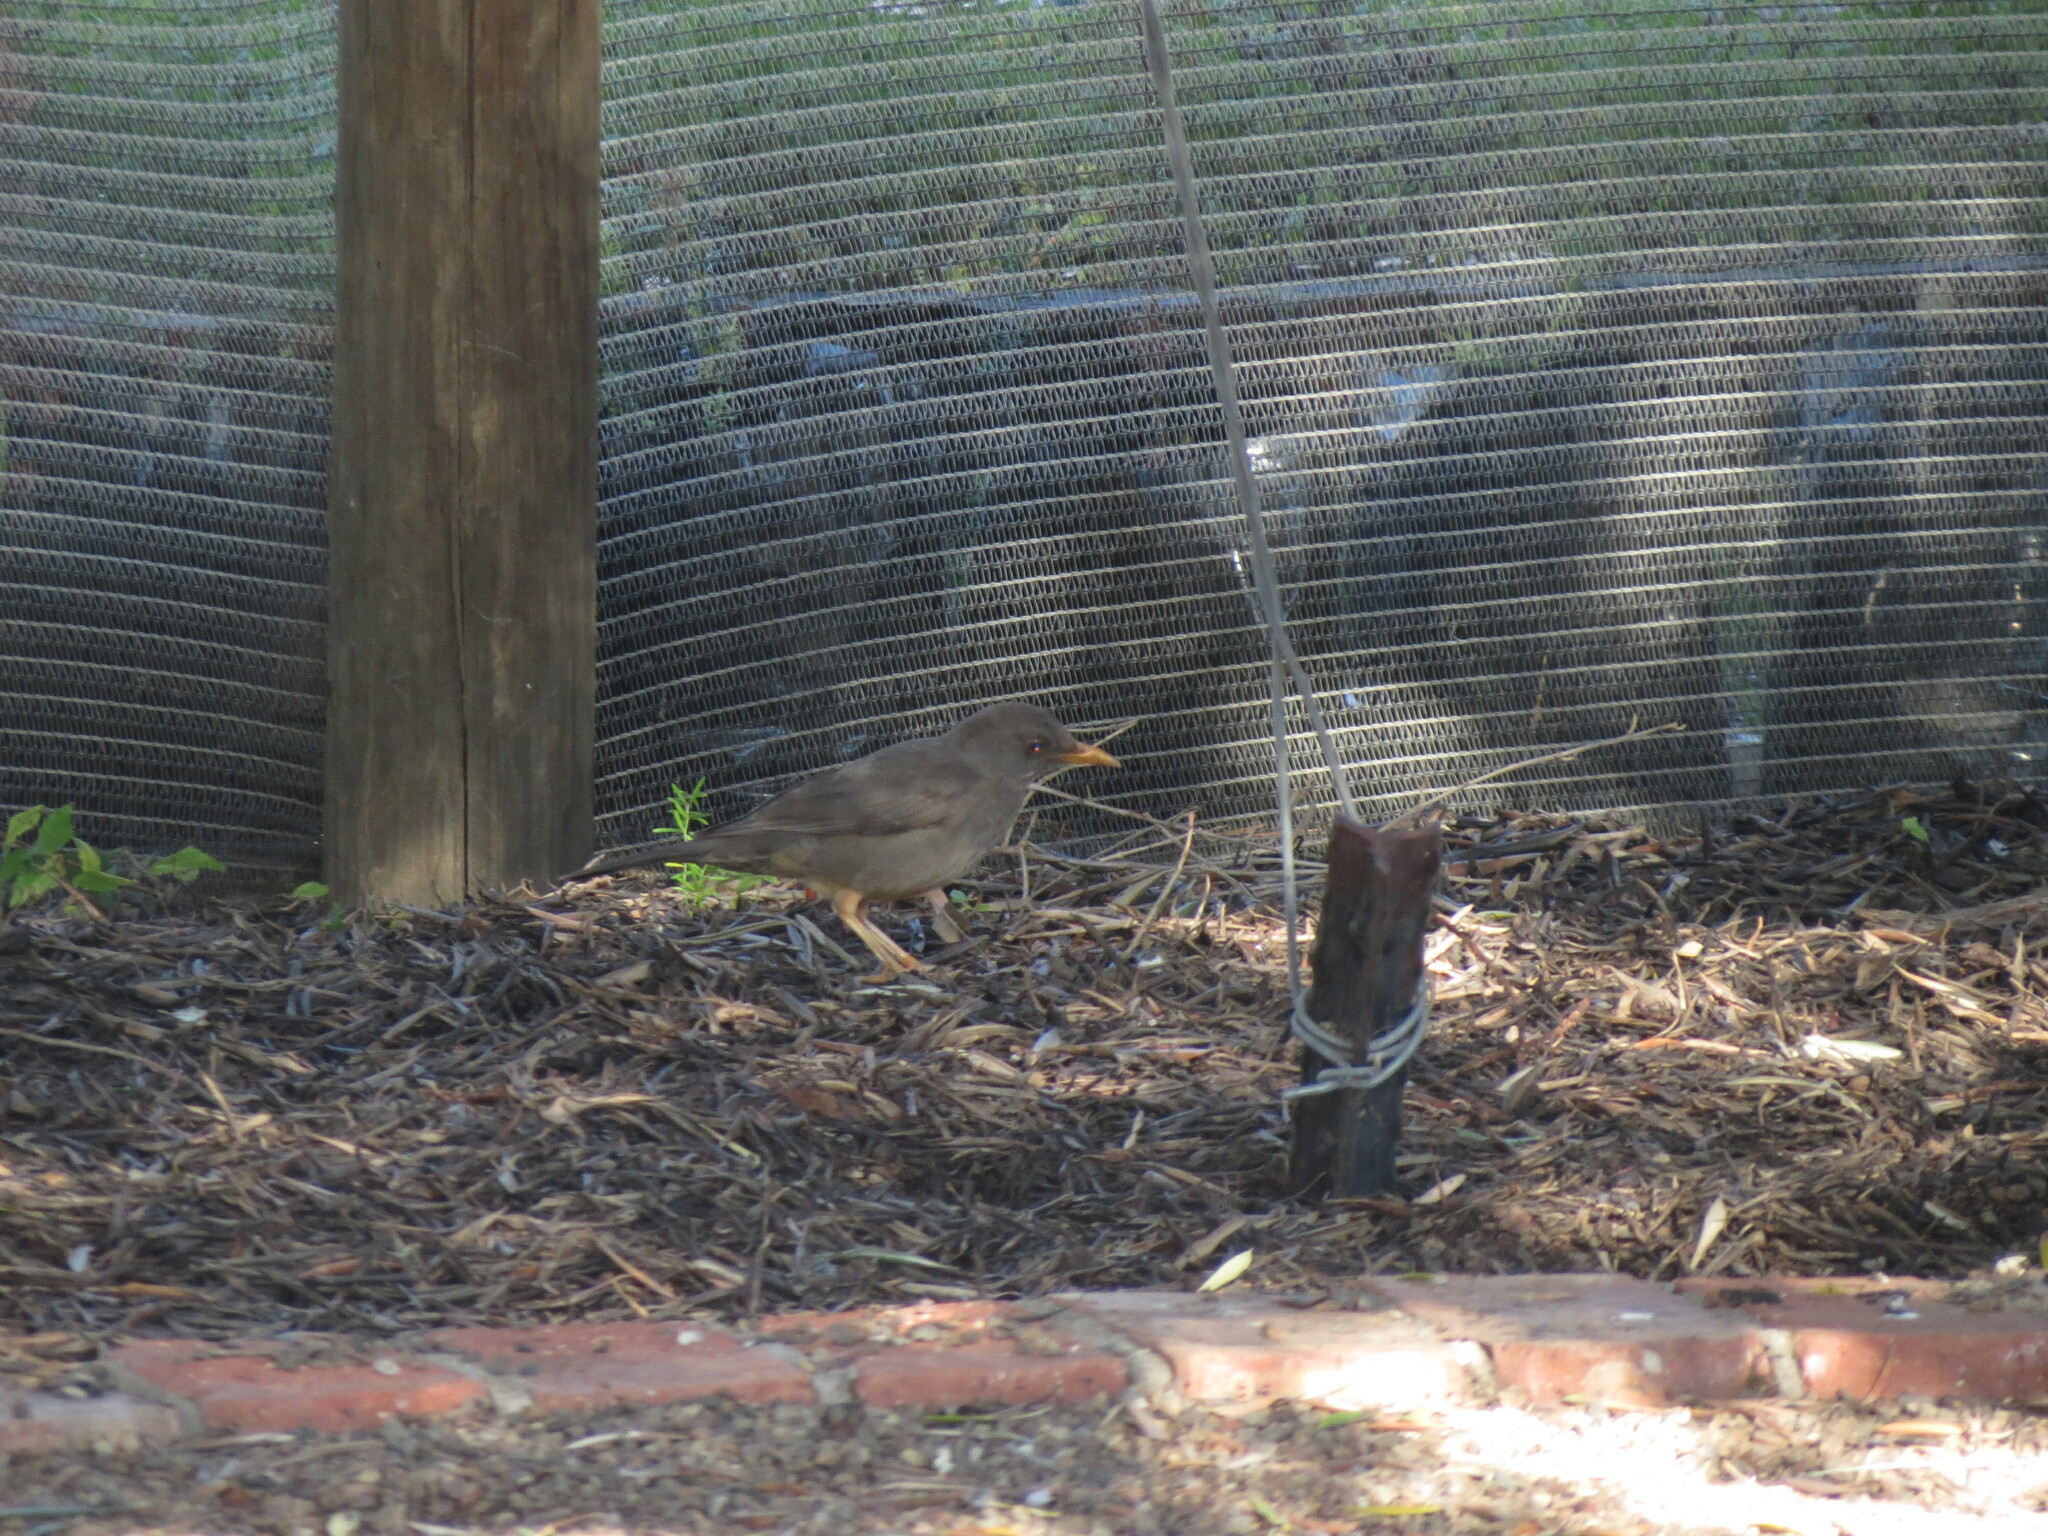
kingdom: Animalia
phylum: Chordata
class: Aves
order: Passeriformes
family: Turdidae
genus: Turdus
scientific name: Turdus smithi
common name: Karoo thrush
